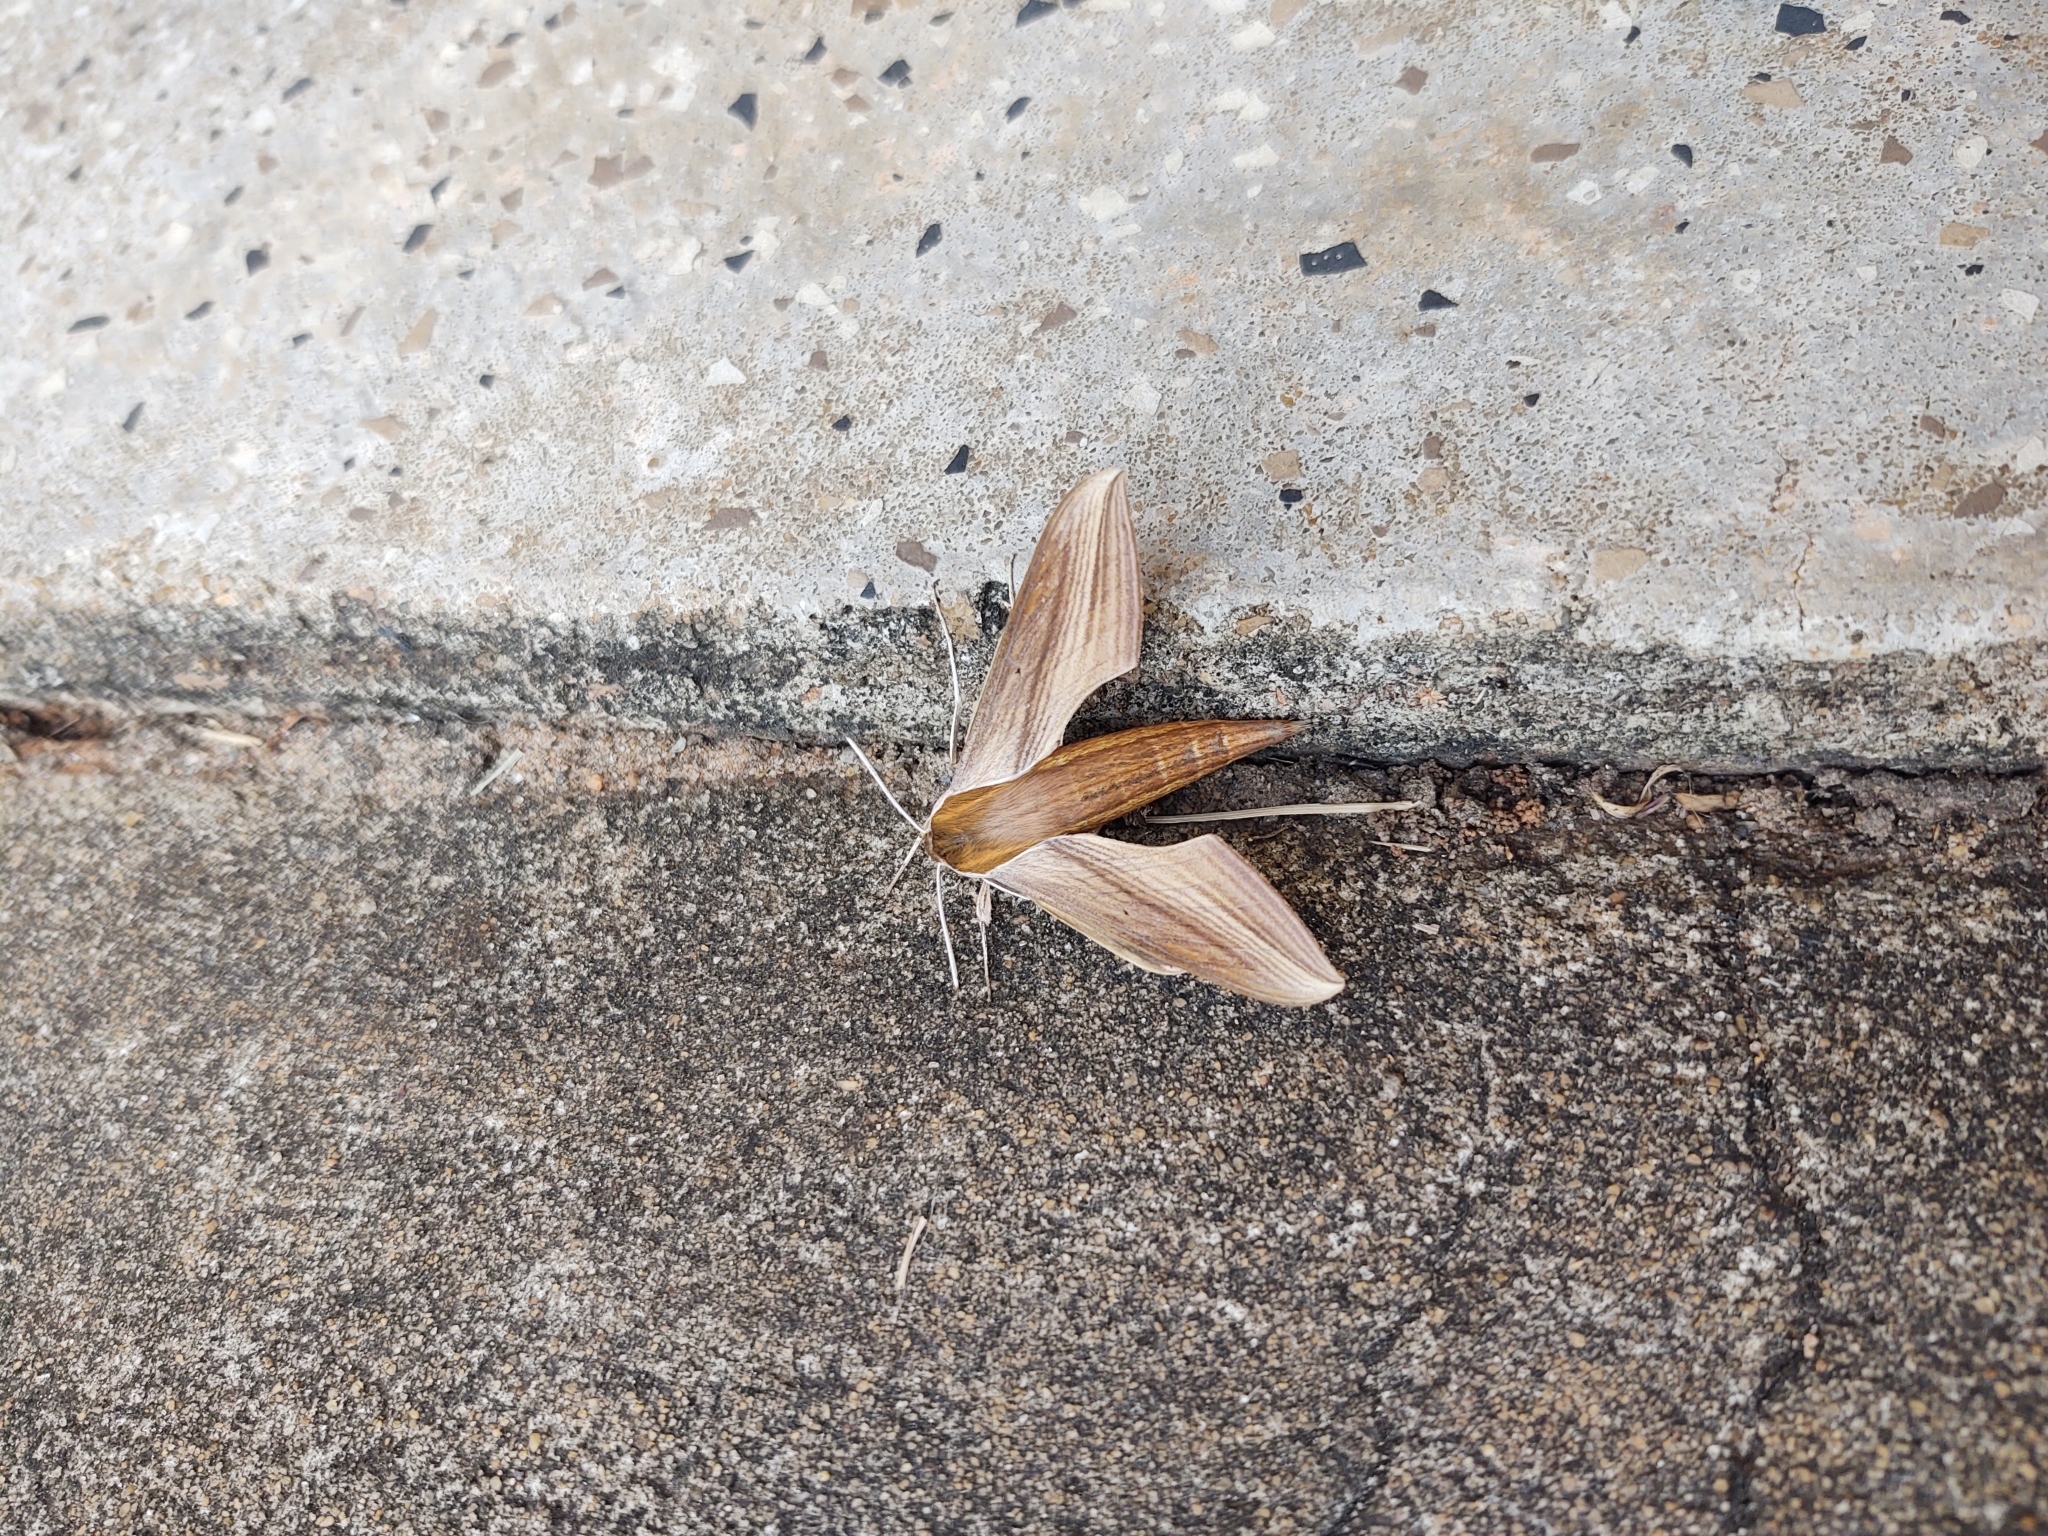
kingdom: Animalia
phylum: Arthropoda
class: Insecta
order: Lepidoptera
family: Sphingidae
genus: Xylophanes
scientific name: Xylophanes tersa
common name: Tersa sphinx
